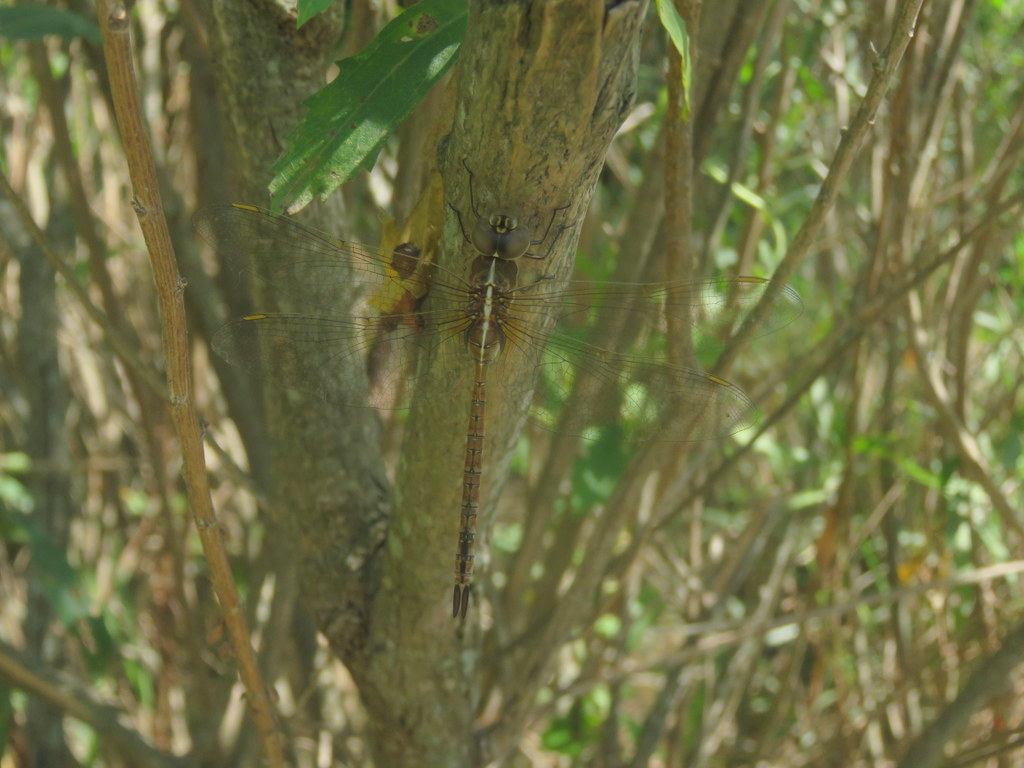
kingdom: Animalia
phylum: Arthropoda
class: Insecta
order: Odonata
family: Aeshnidae
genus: Rhionaeschna
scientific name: Rhionaeschna bonariensis
